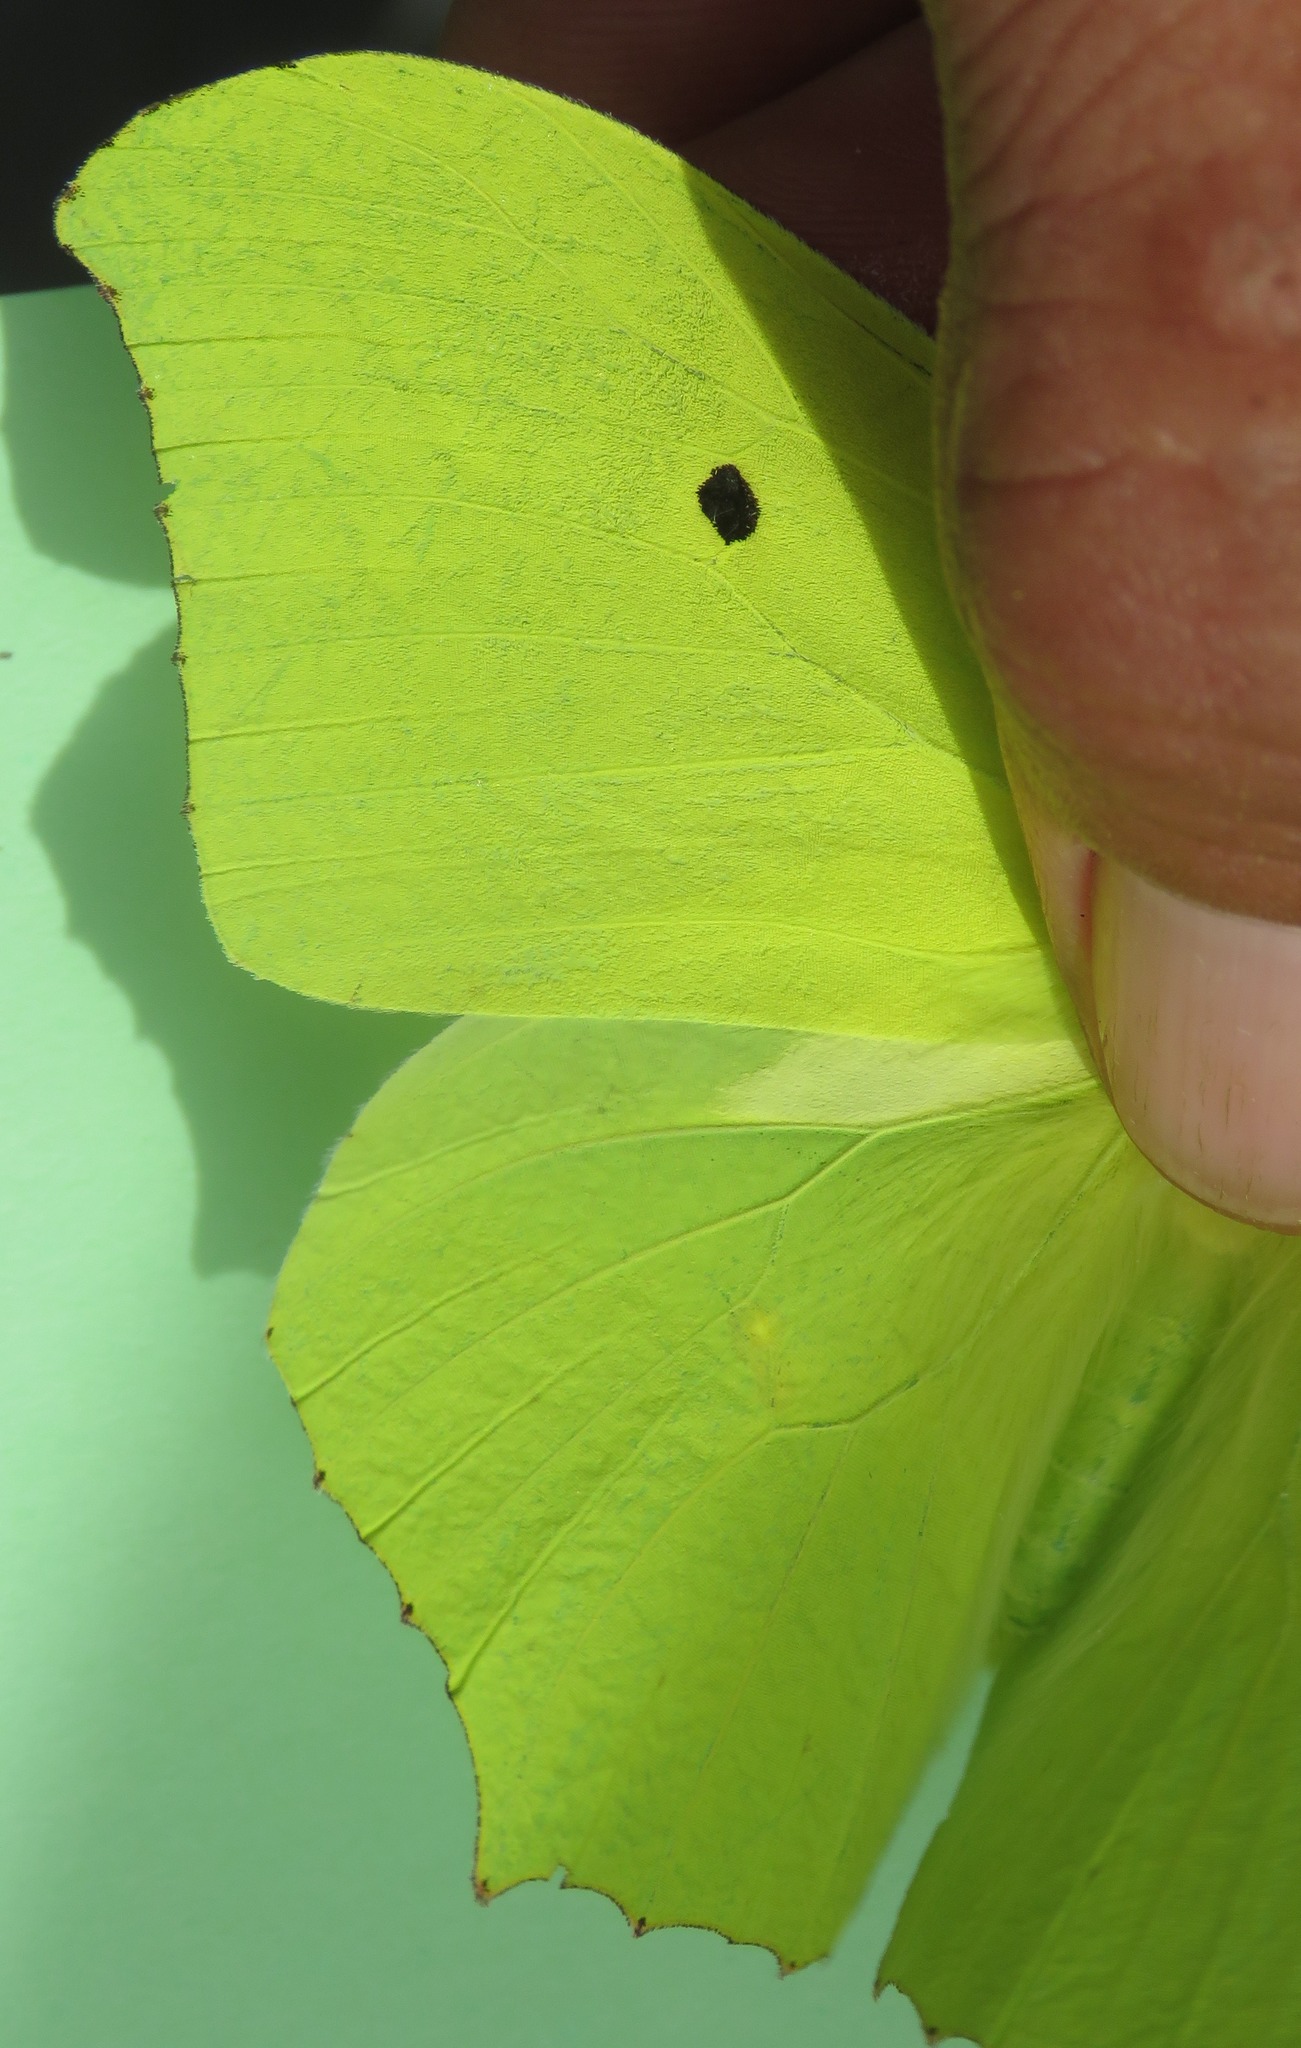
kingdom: Animalia
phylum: Arthropoda
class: Insecta
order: Lepidoptera
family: Pieridae
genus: Anteos
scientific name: Anteos maerula
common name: Angled sulphur
